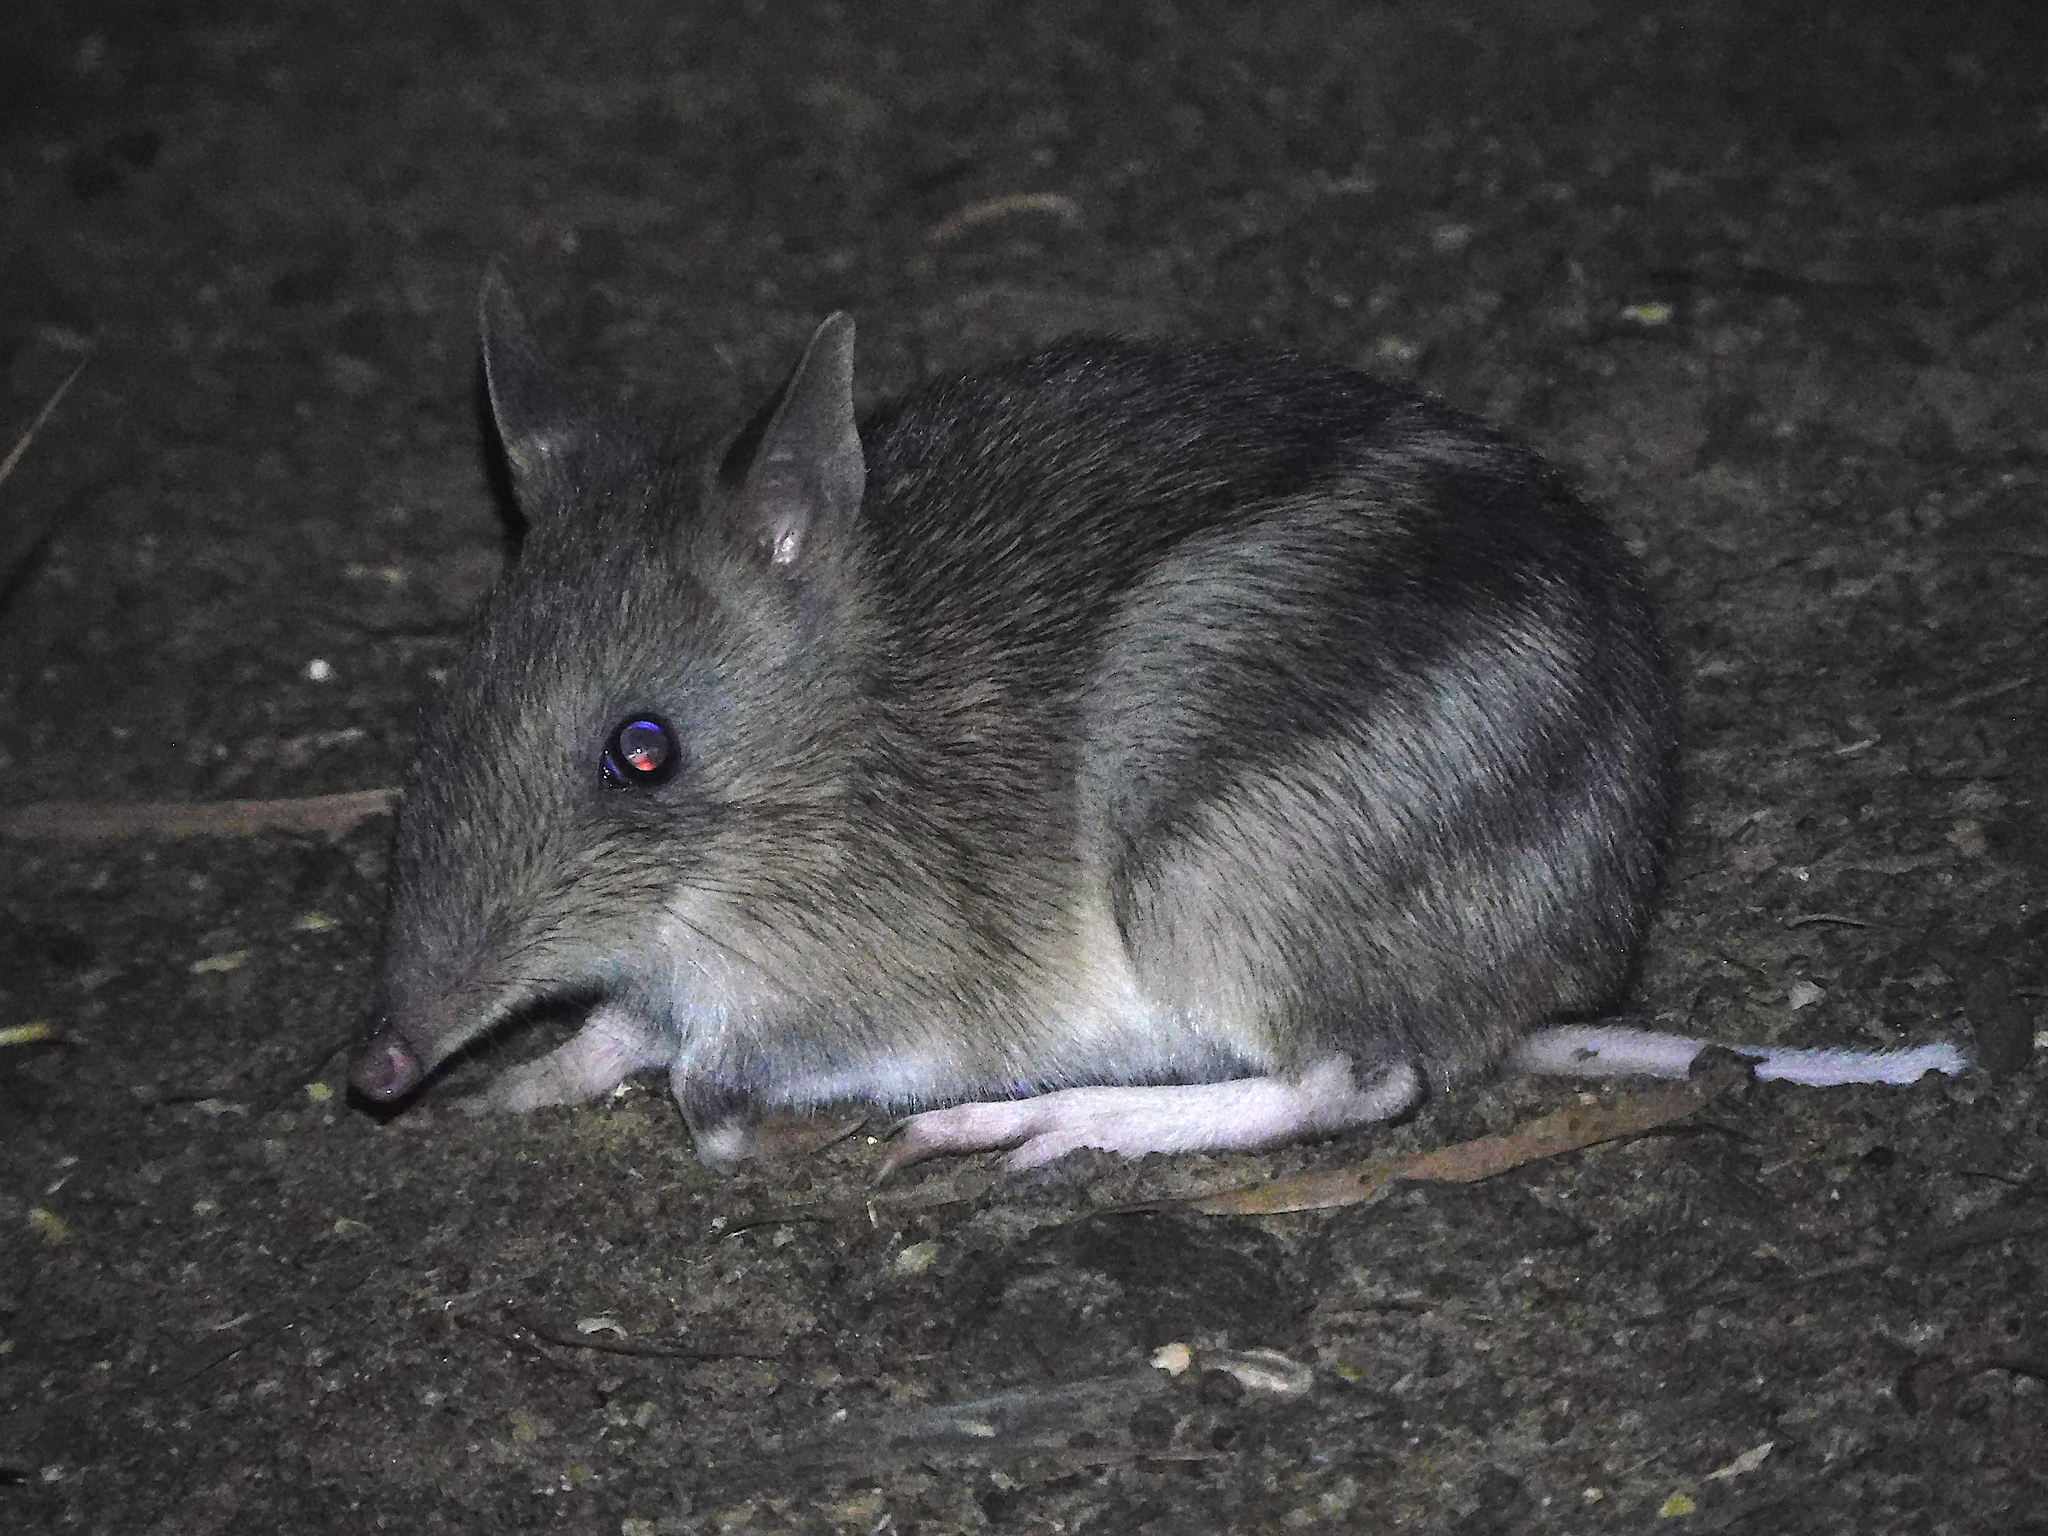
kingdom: Animalia
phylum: Chordata
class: Mammalia
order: Peramelemorphia
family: Peramelidae
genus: Perameles
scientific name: Perameles gunnii
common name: Eastern barred bandicoot
